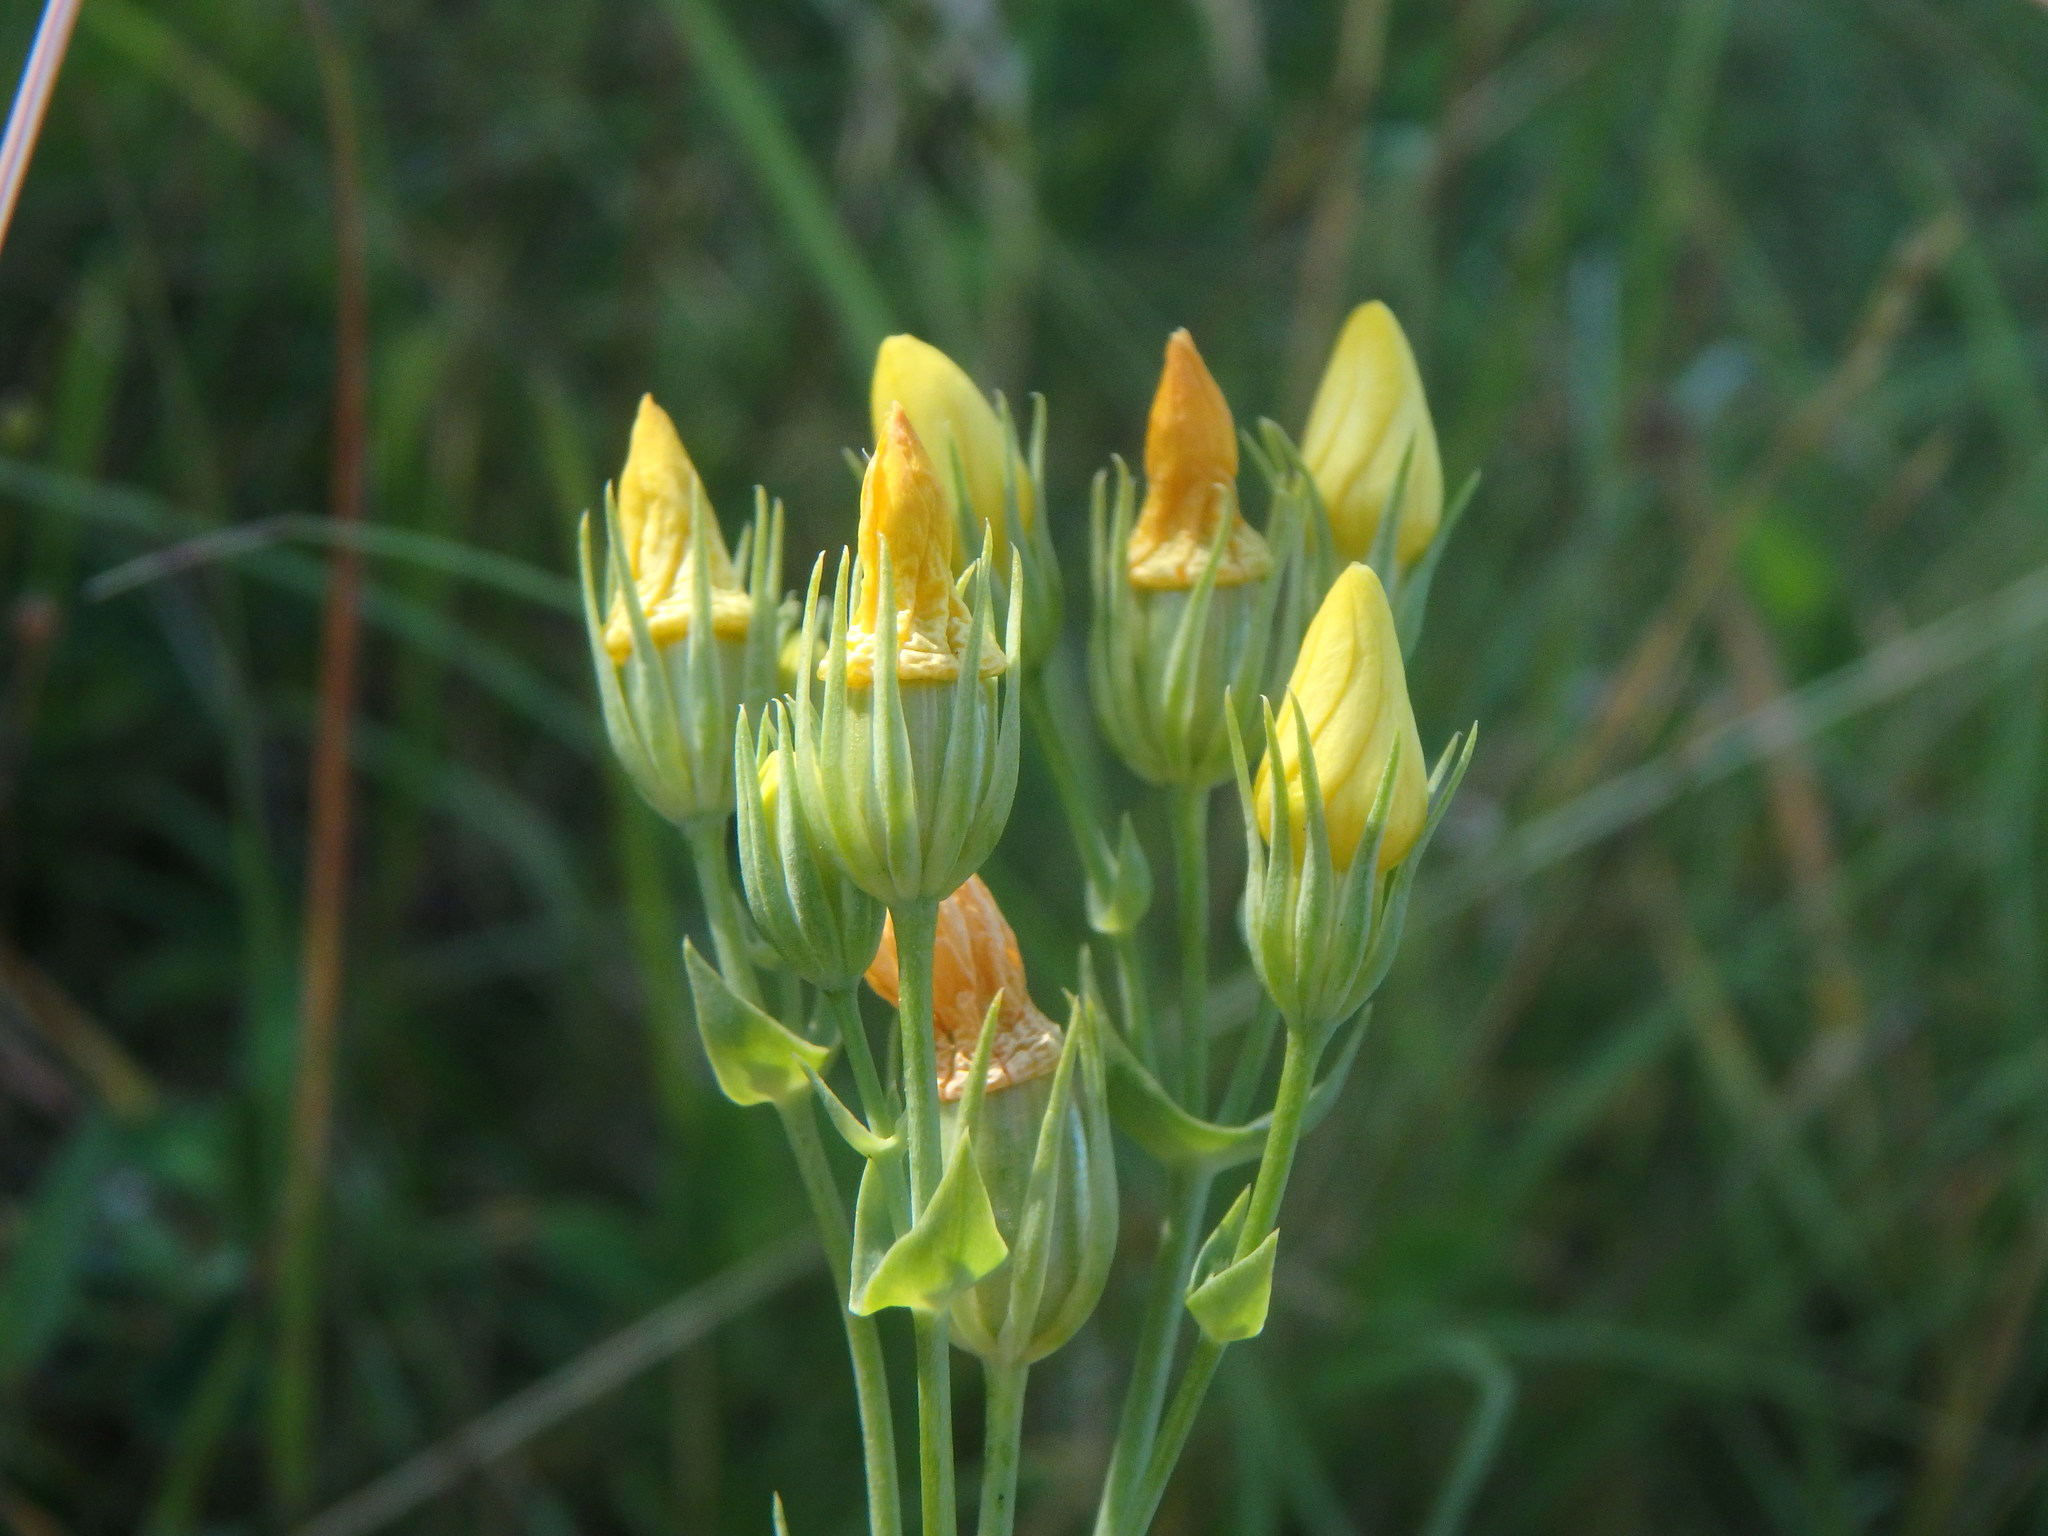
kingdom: Plantae
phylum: Tracheophyta
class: Magnoliopsida
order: Gentianales
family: Gentianaceae
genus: Blackstonia
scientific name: Blackstonia perfoliata
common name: Yellow-wort
